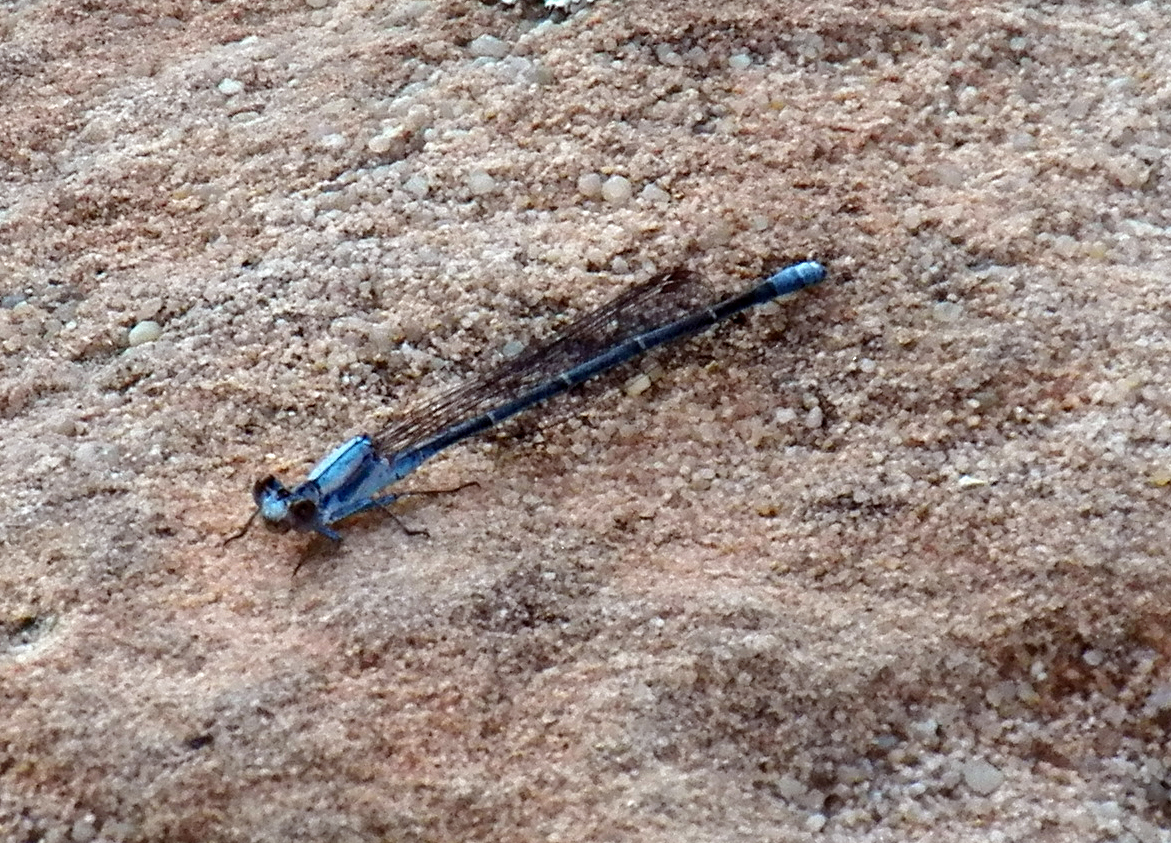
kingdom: Animalia
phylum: Arthropoda
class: Insecta
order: Odonata
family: Coenagrionidae
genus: Argia
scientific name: Argia moesta
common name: Powdered dancer
